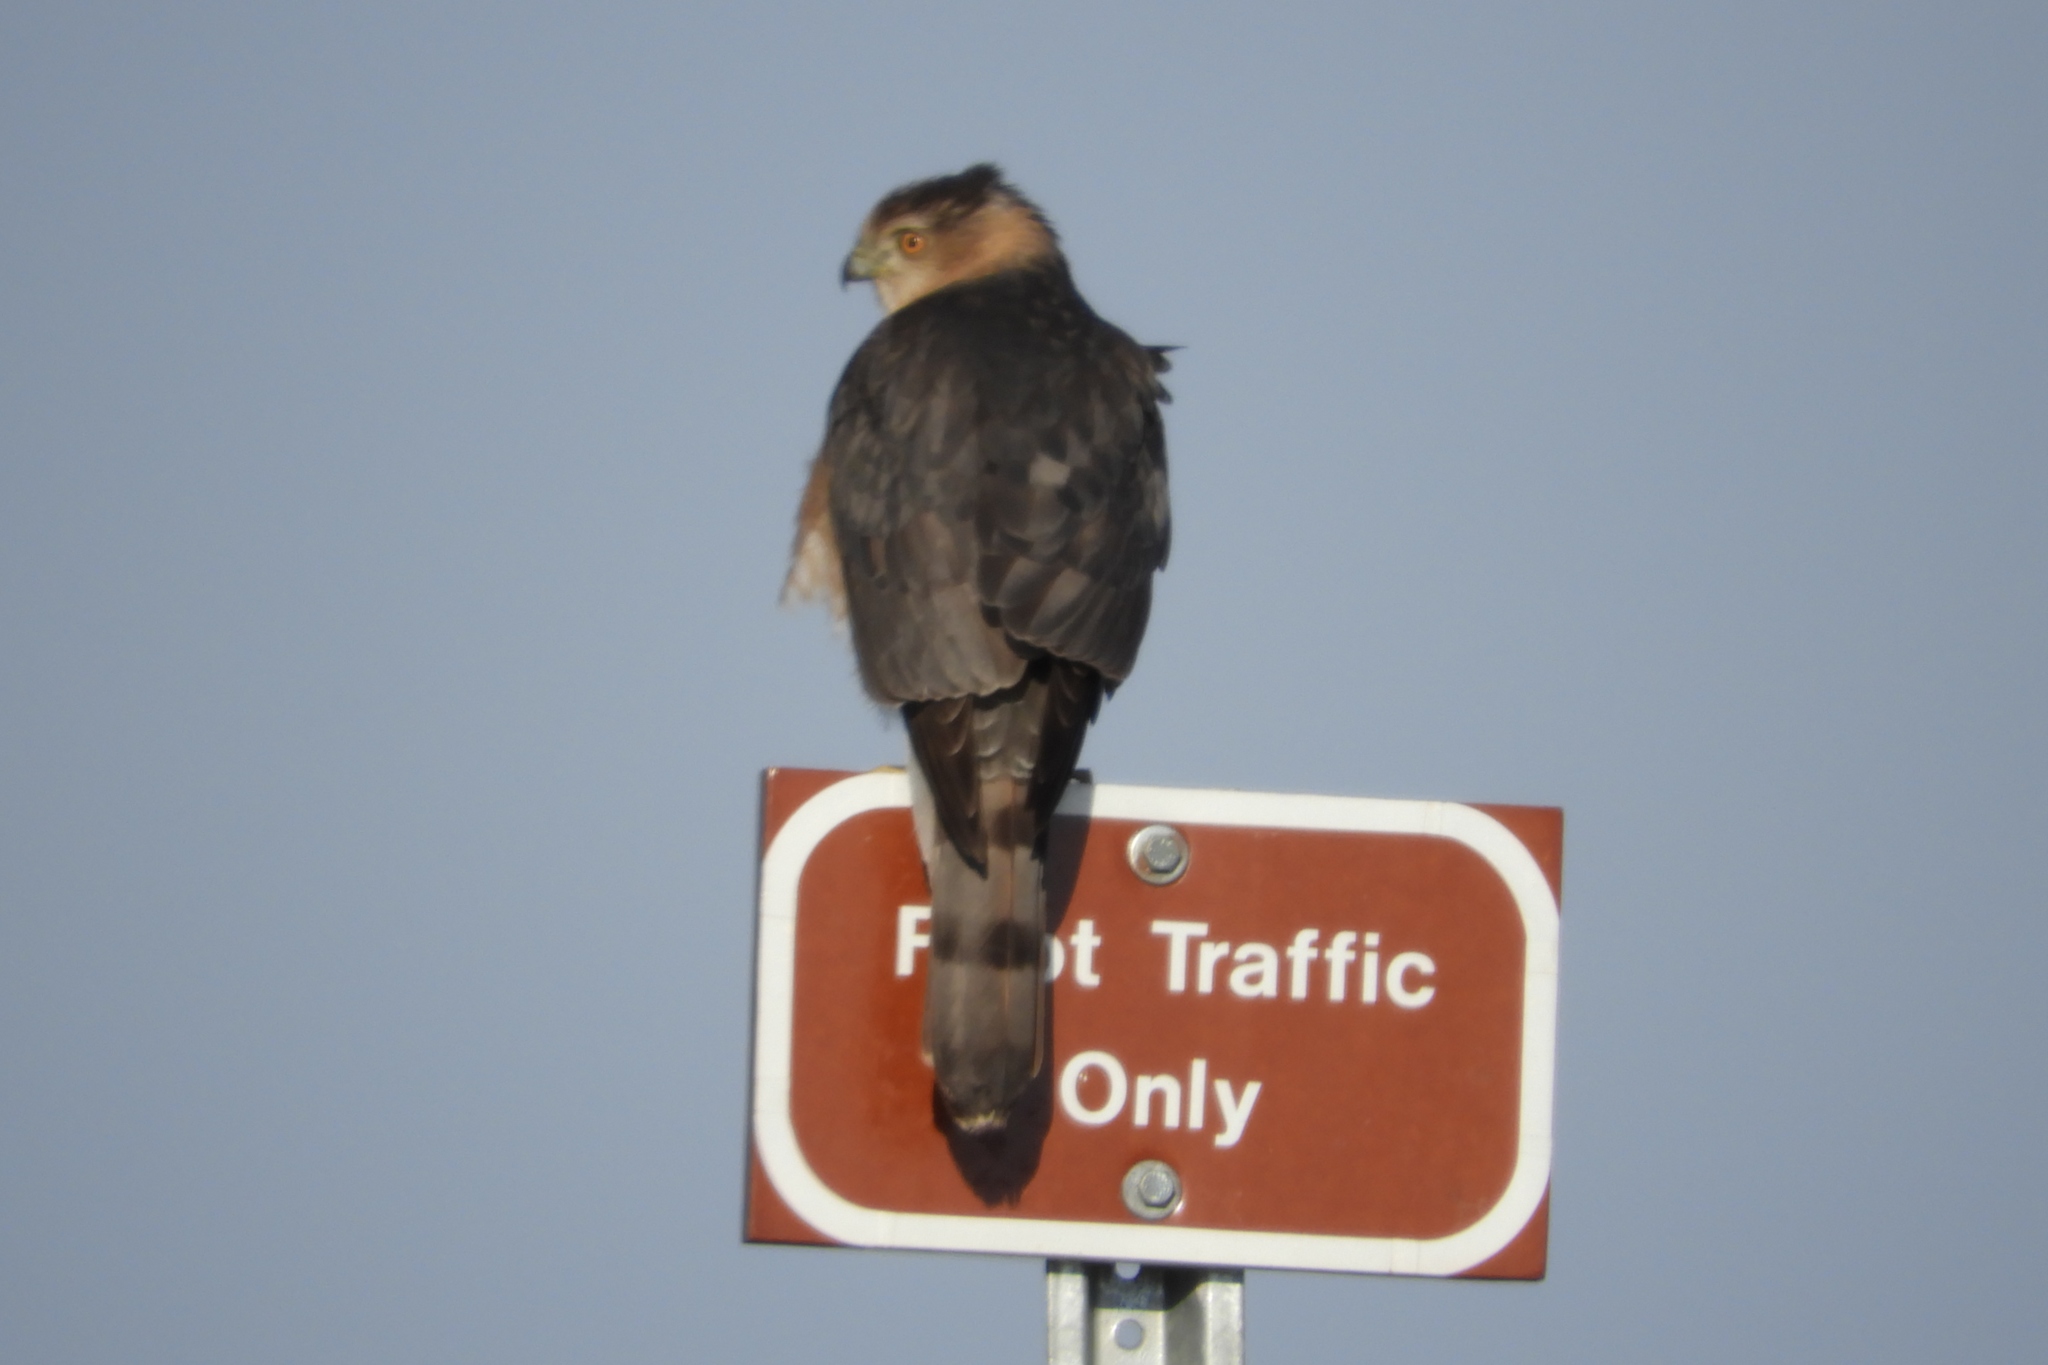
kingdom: Animalia
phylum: Chordata
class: Aves
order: Accipitriformes
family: Accipitridae
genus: Accipiter
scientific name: Accipiter cooperii
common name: Cooper's hawk
